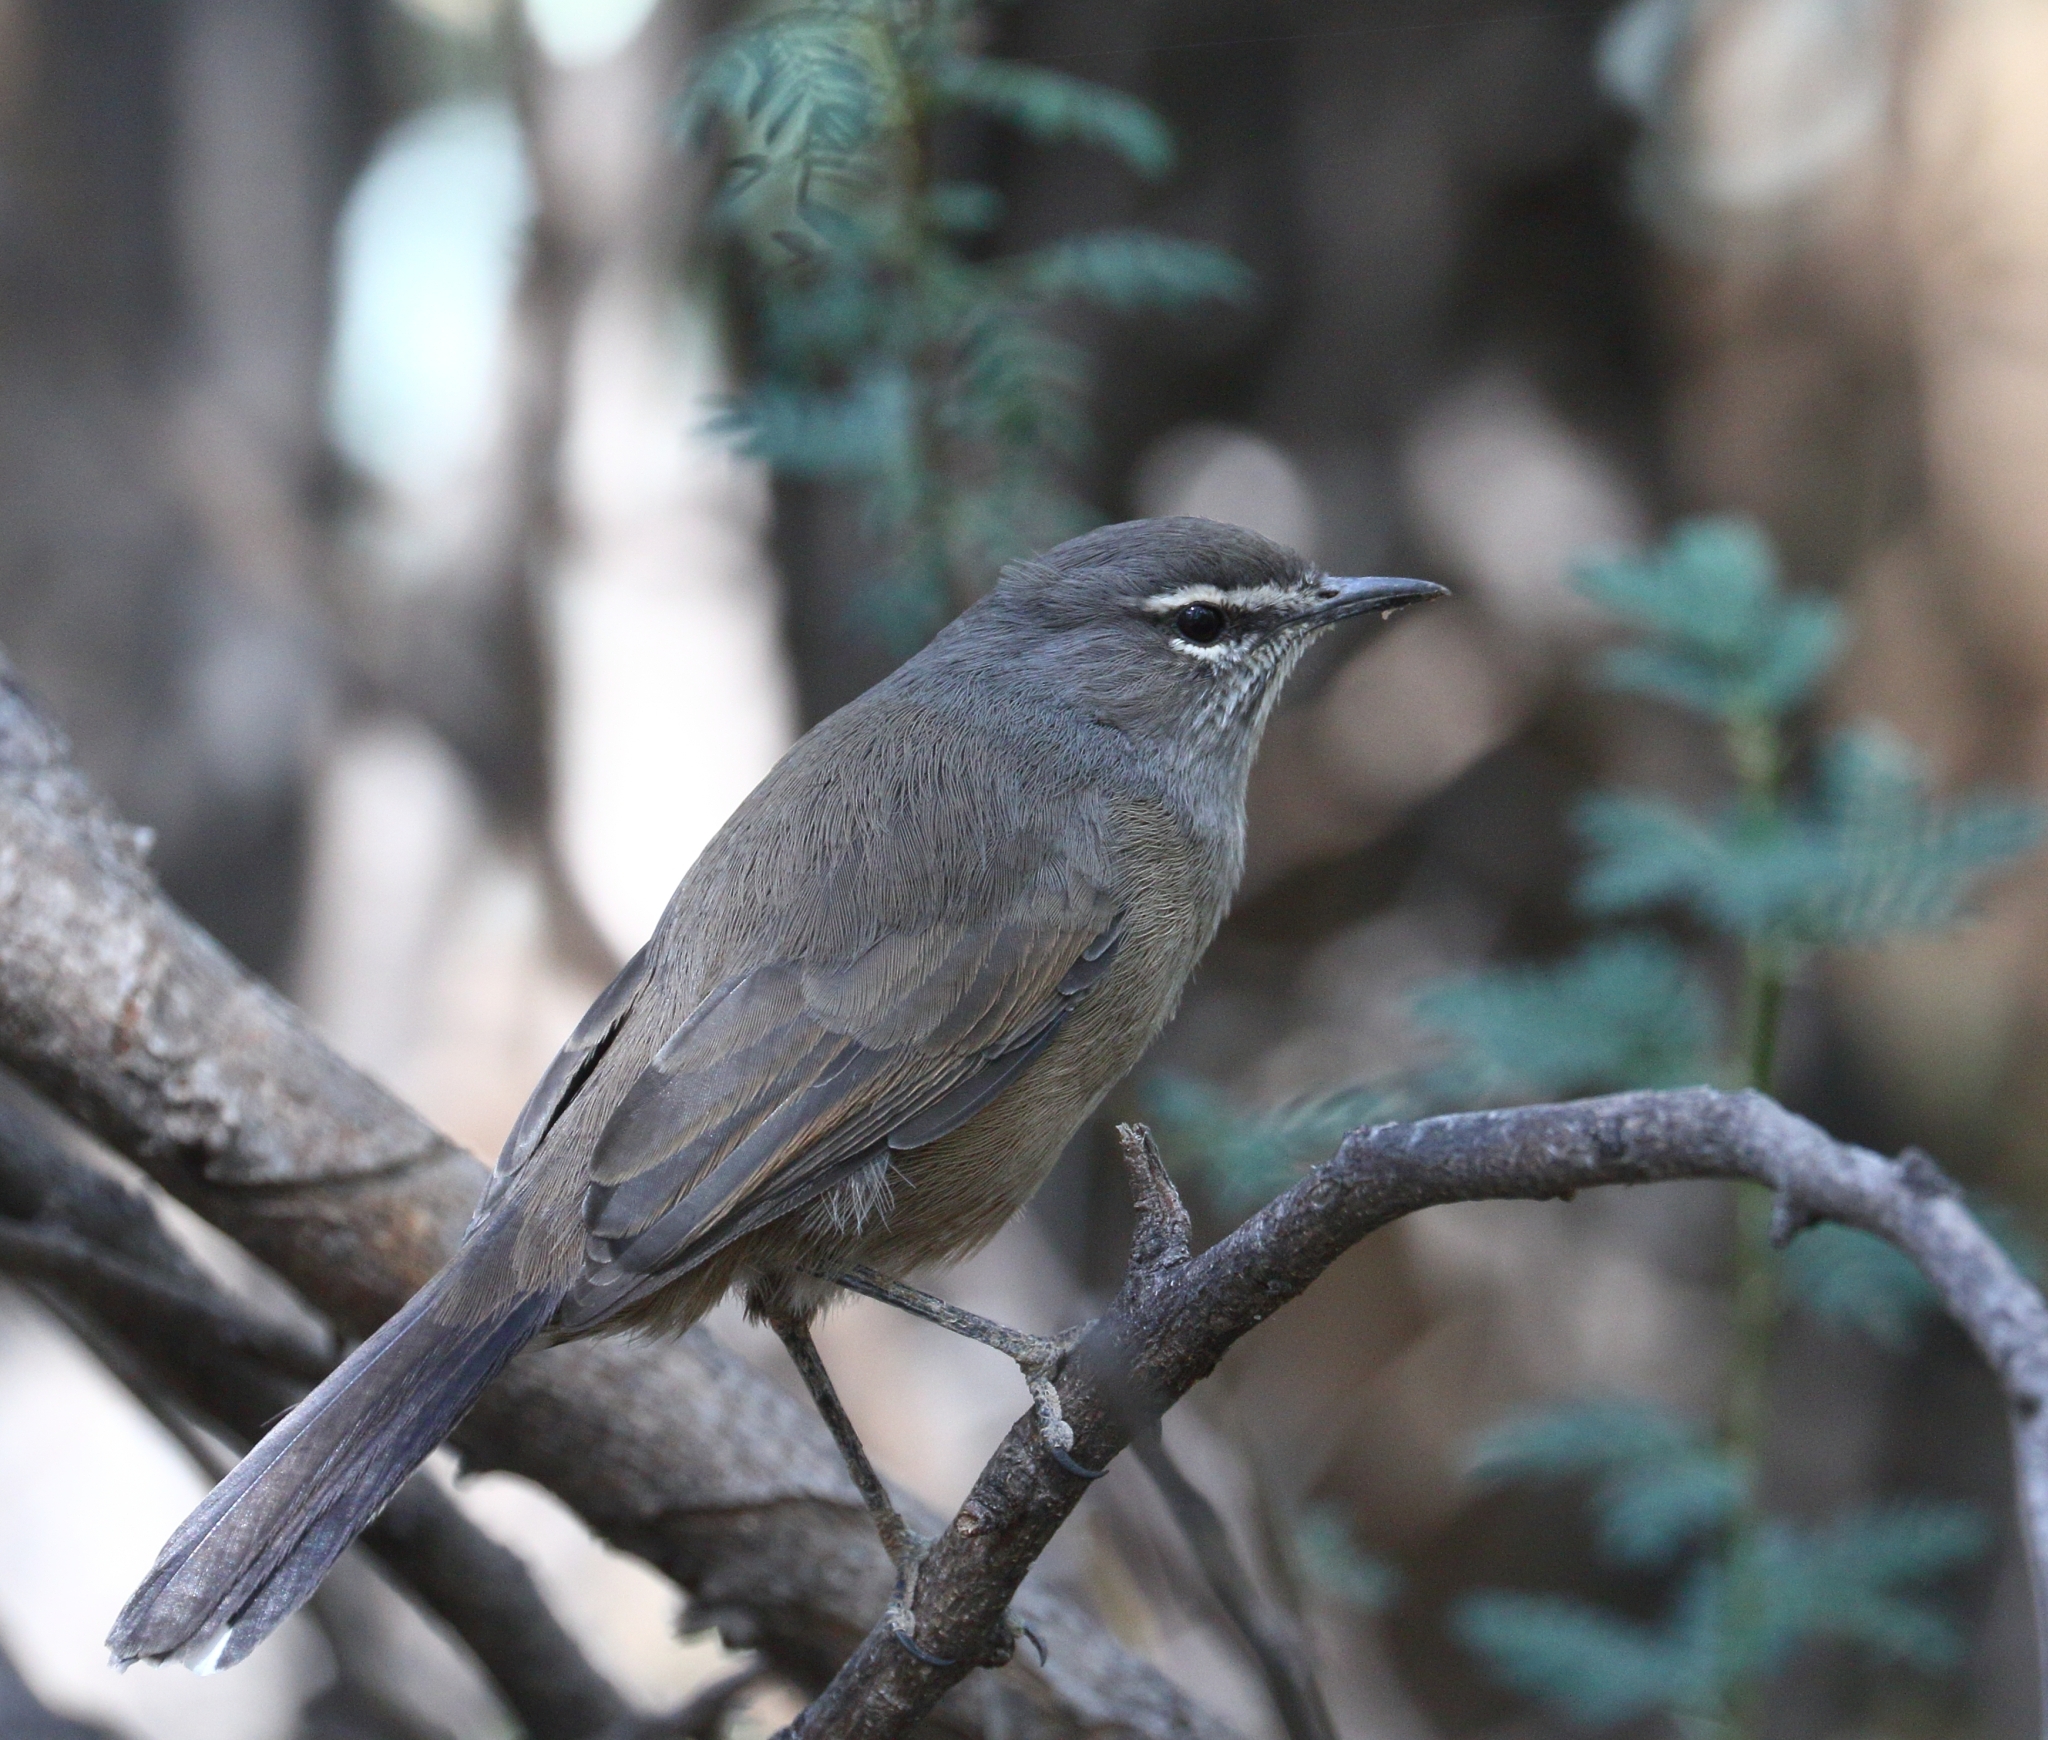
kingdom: Animalia
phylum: Chordata
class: Aves
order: Passeriformes
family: Muscicapidae
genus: Erythropygia
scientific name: Erythropygia coryphoeus
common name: Karoo scrub robin
